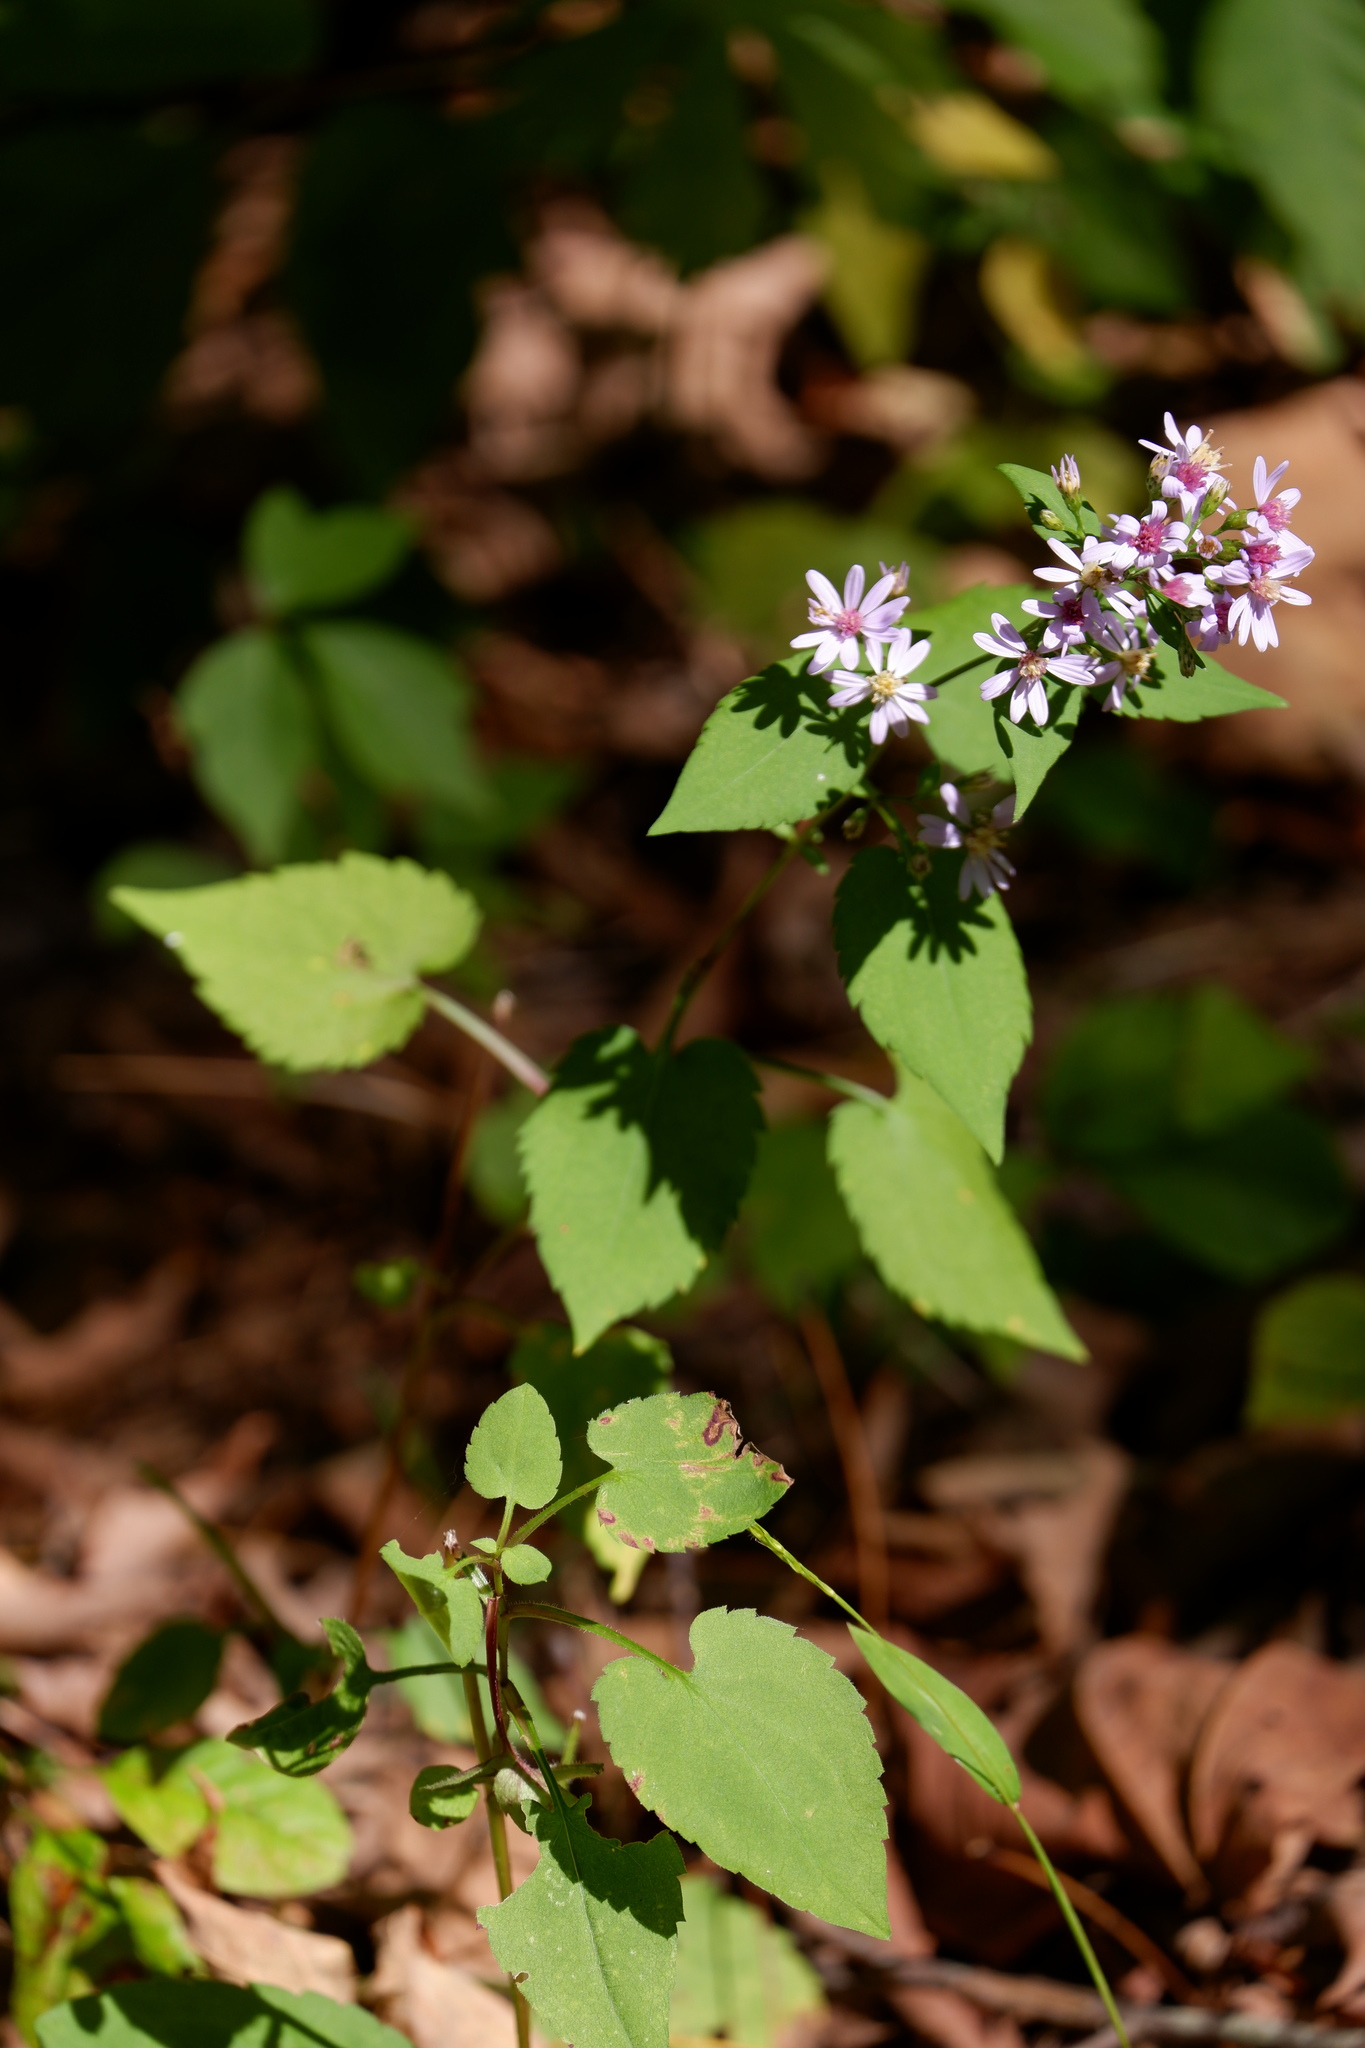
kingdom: Plantae
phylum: Tracheophyta
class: Magnoliopsida
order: Asterales
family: Asteraceae
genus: Symphyotrichum
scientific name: Symphyotrichum cordifolium
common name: Beeweed
